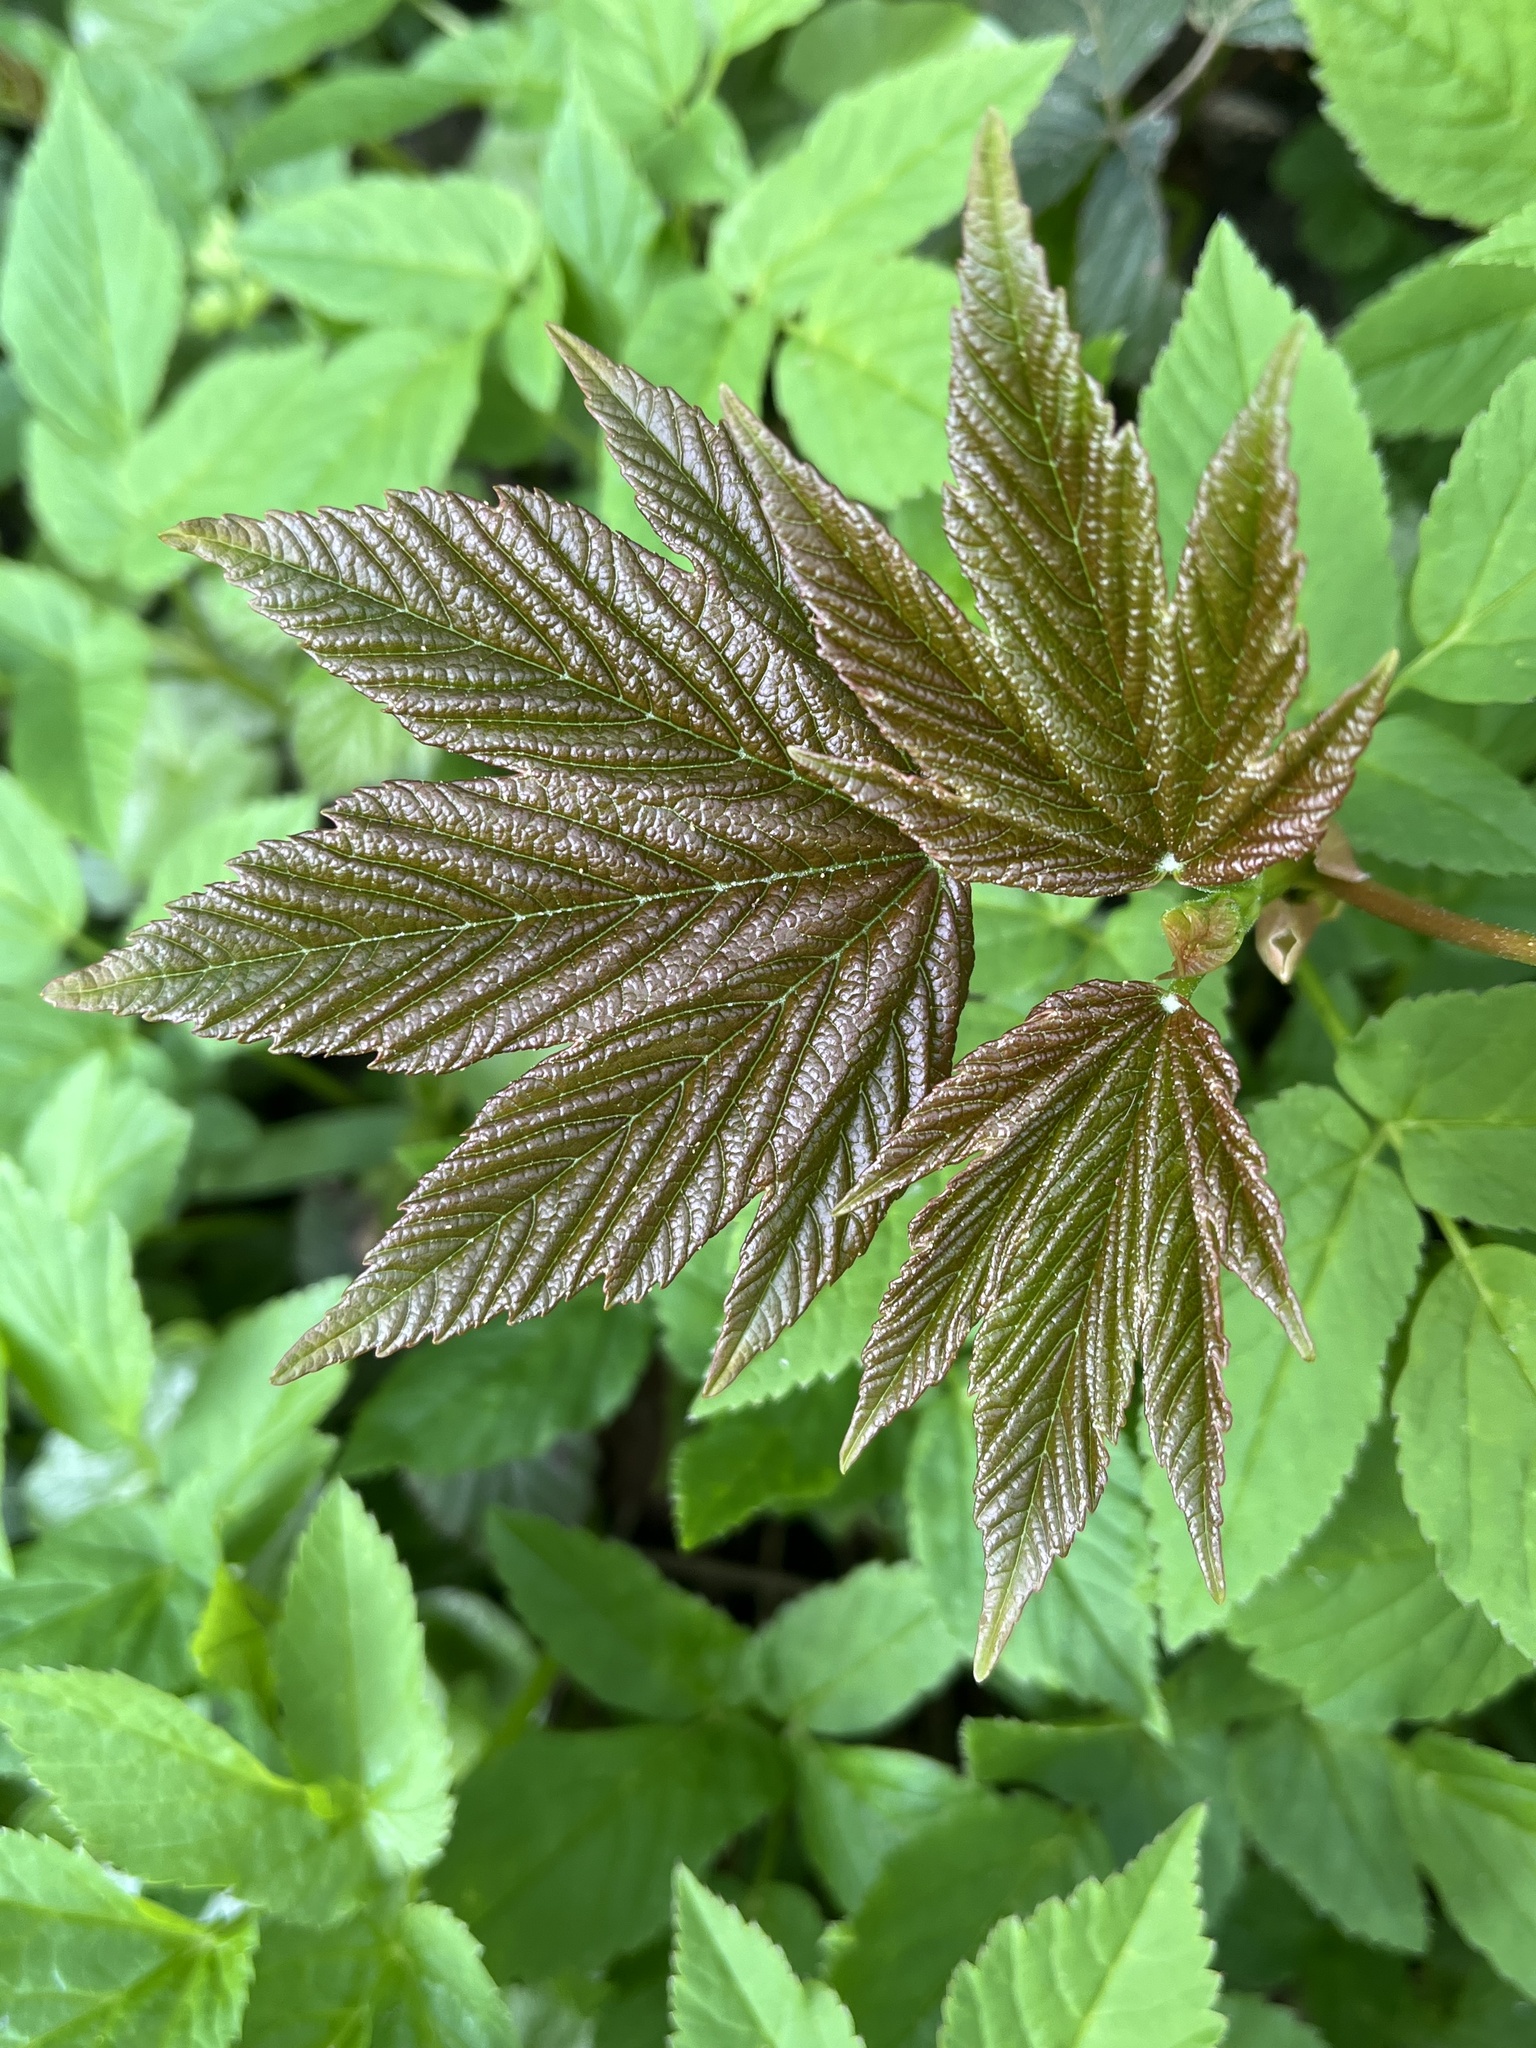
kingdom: Plantae
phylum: Tracheophyta
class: Magnoliopsida
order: Sapindales
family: Sapindaceae
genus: Acer
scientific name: Acer pseudoplatanus
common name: Sycamore
